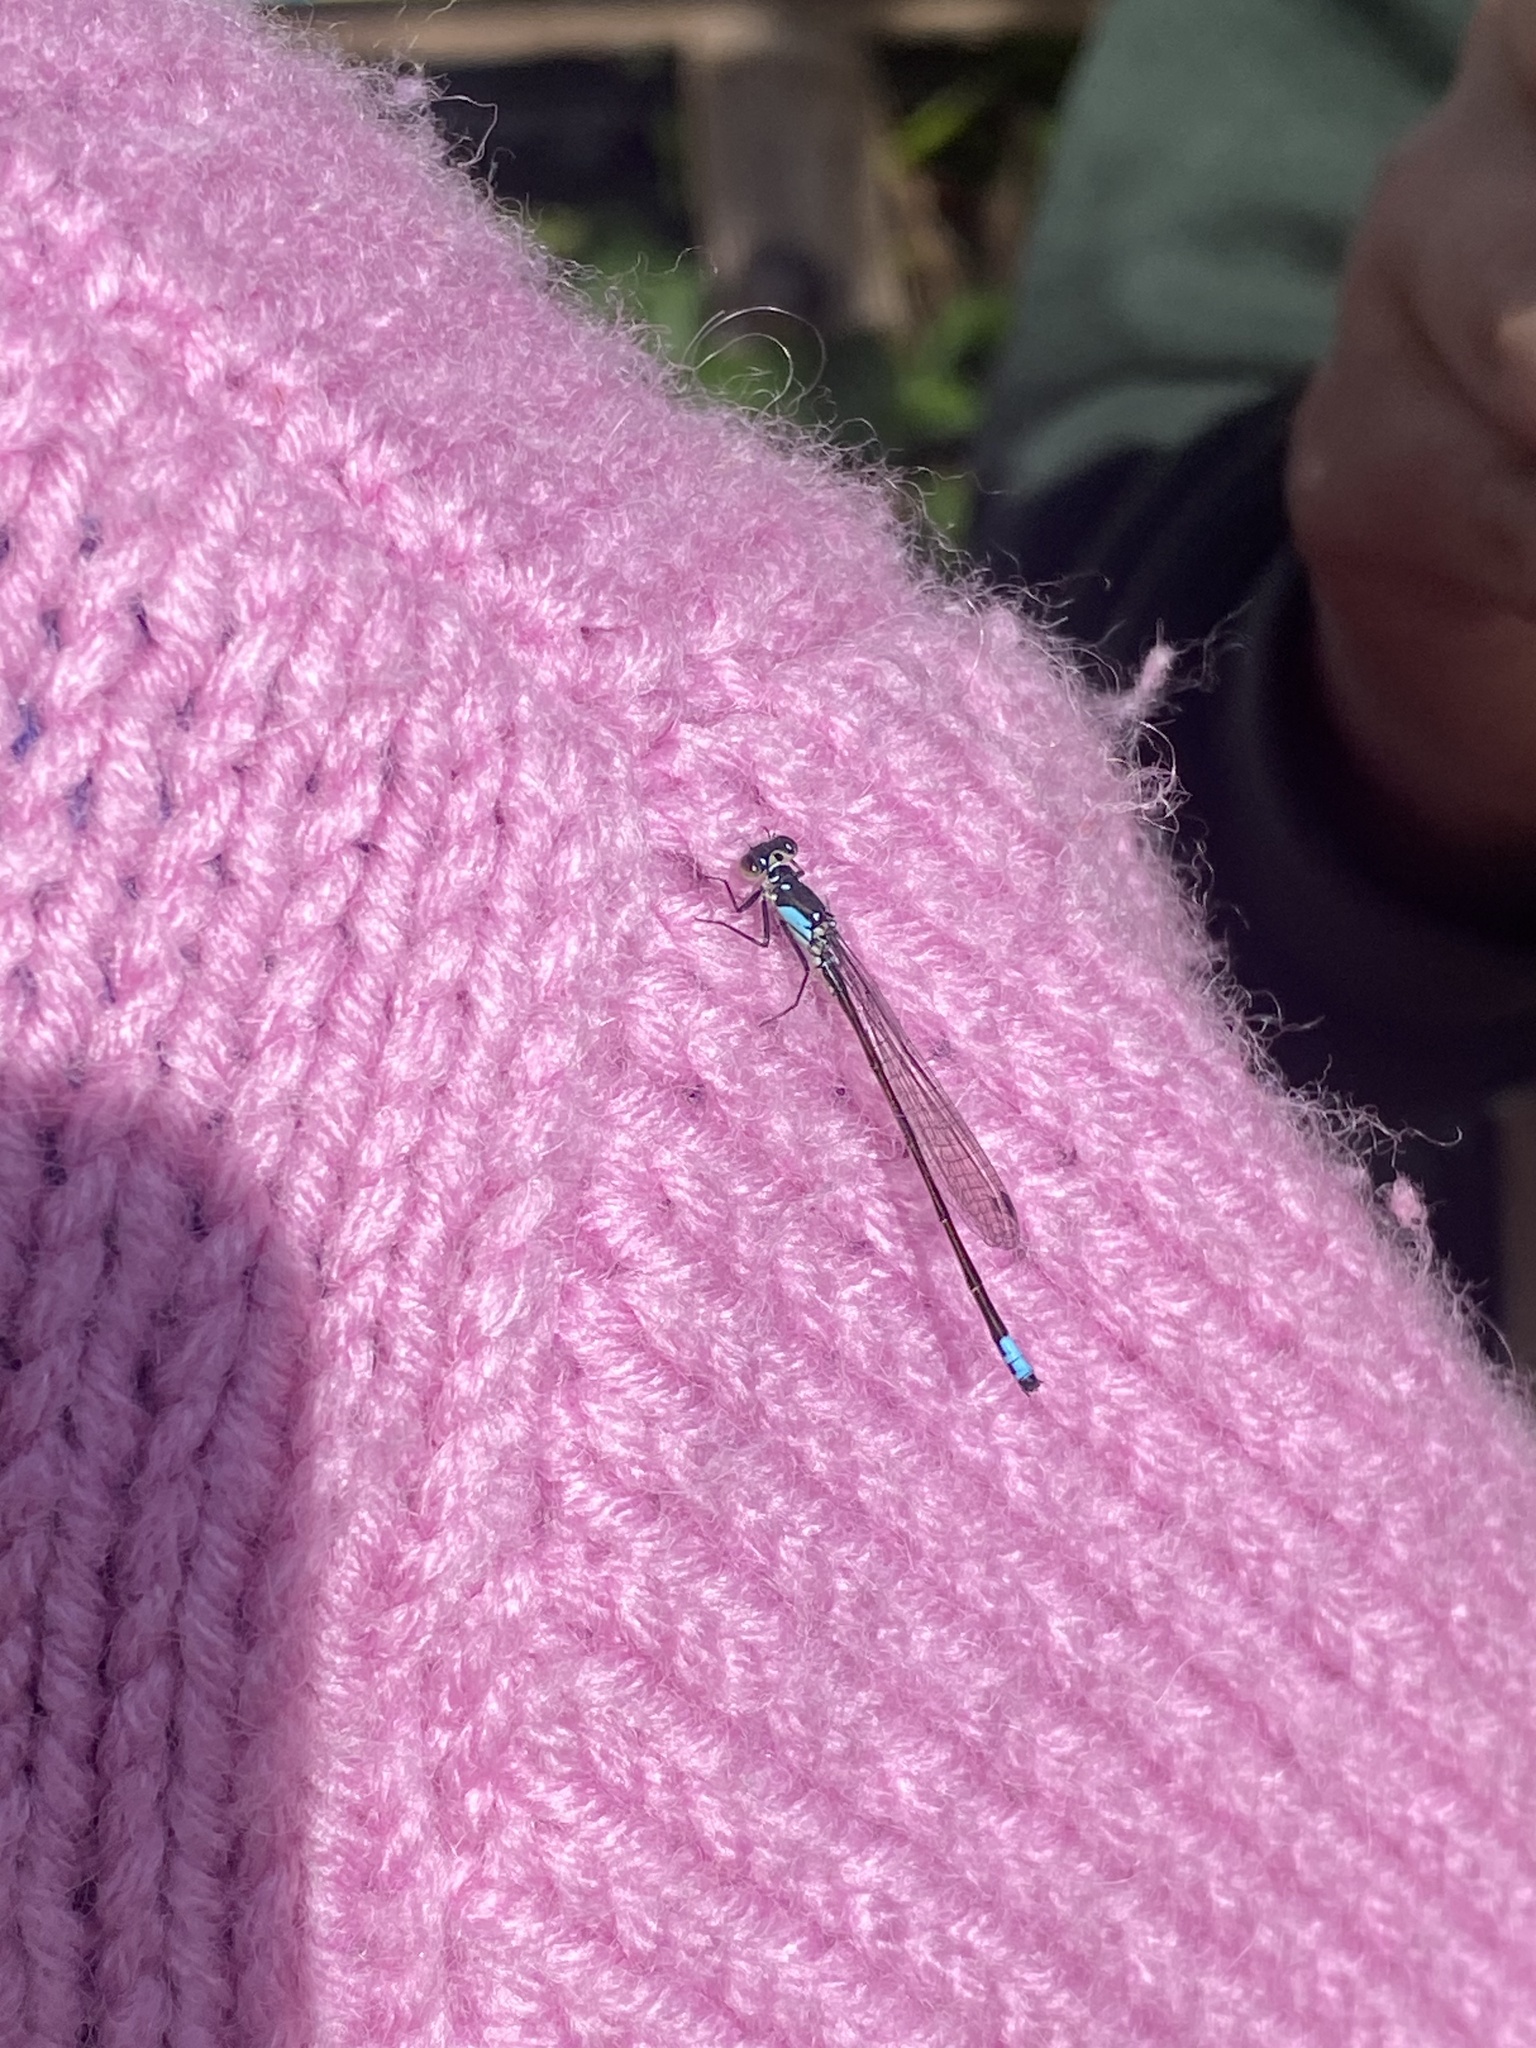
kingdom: Animalia
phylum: Arthropoda
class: Insecta
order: Odonata
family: Coenagrionidae
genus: Ischnura
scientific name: Ischnura cervula
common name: Pacific forktail
